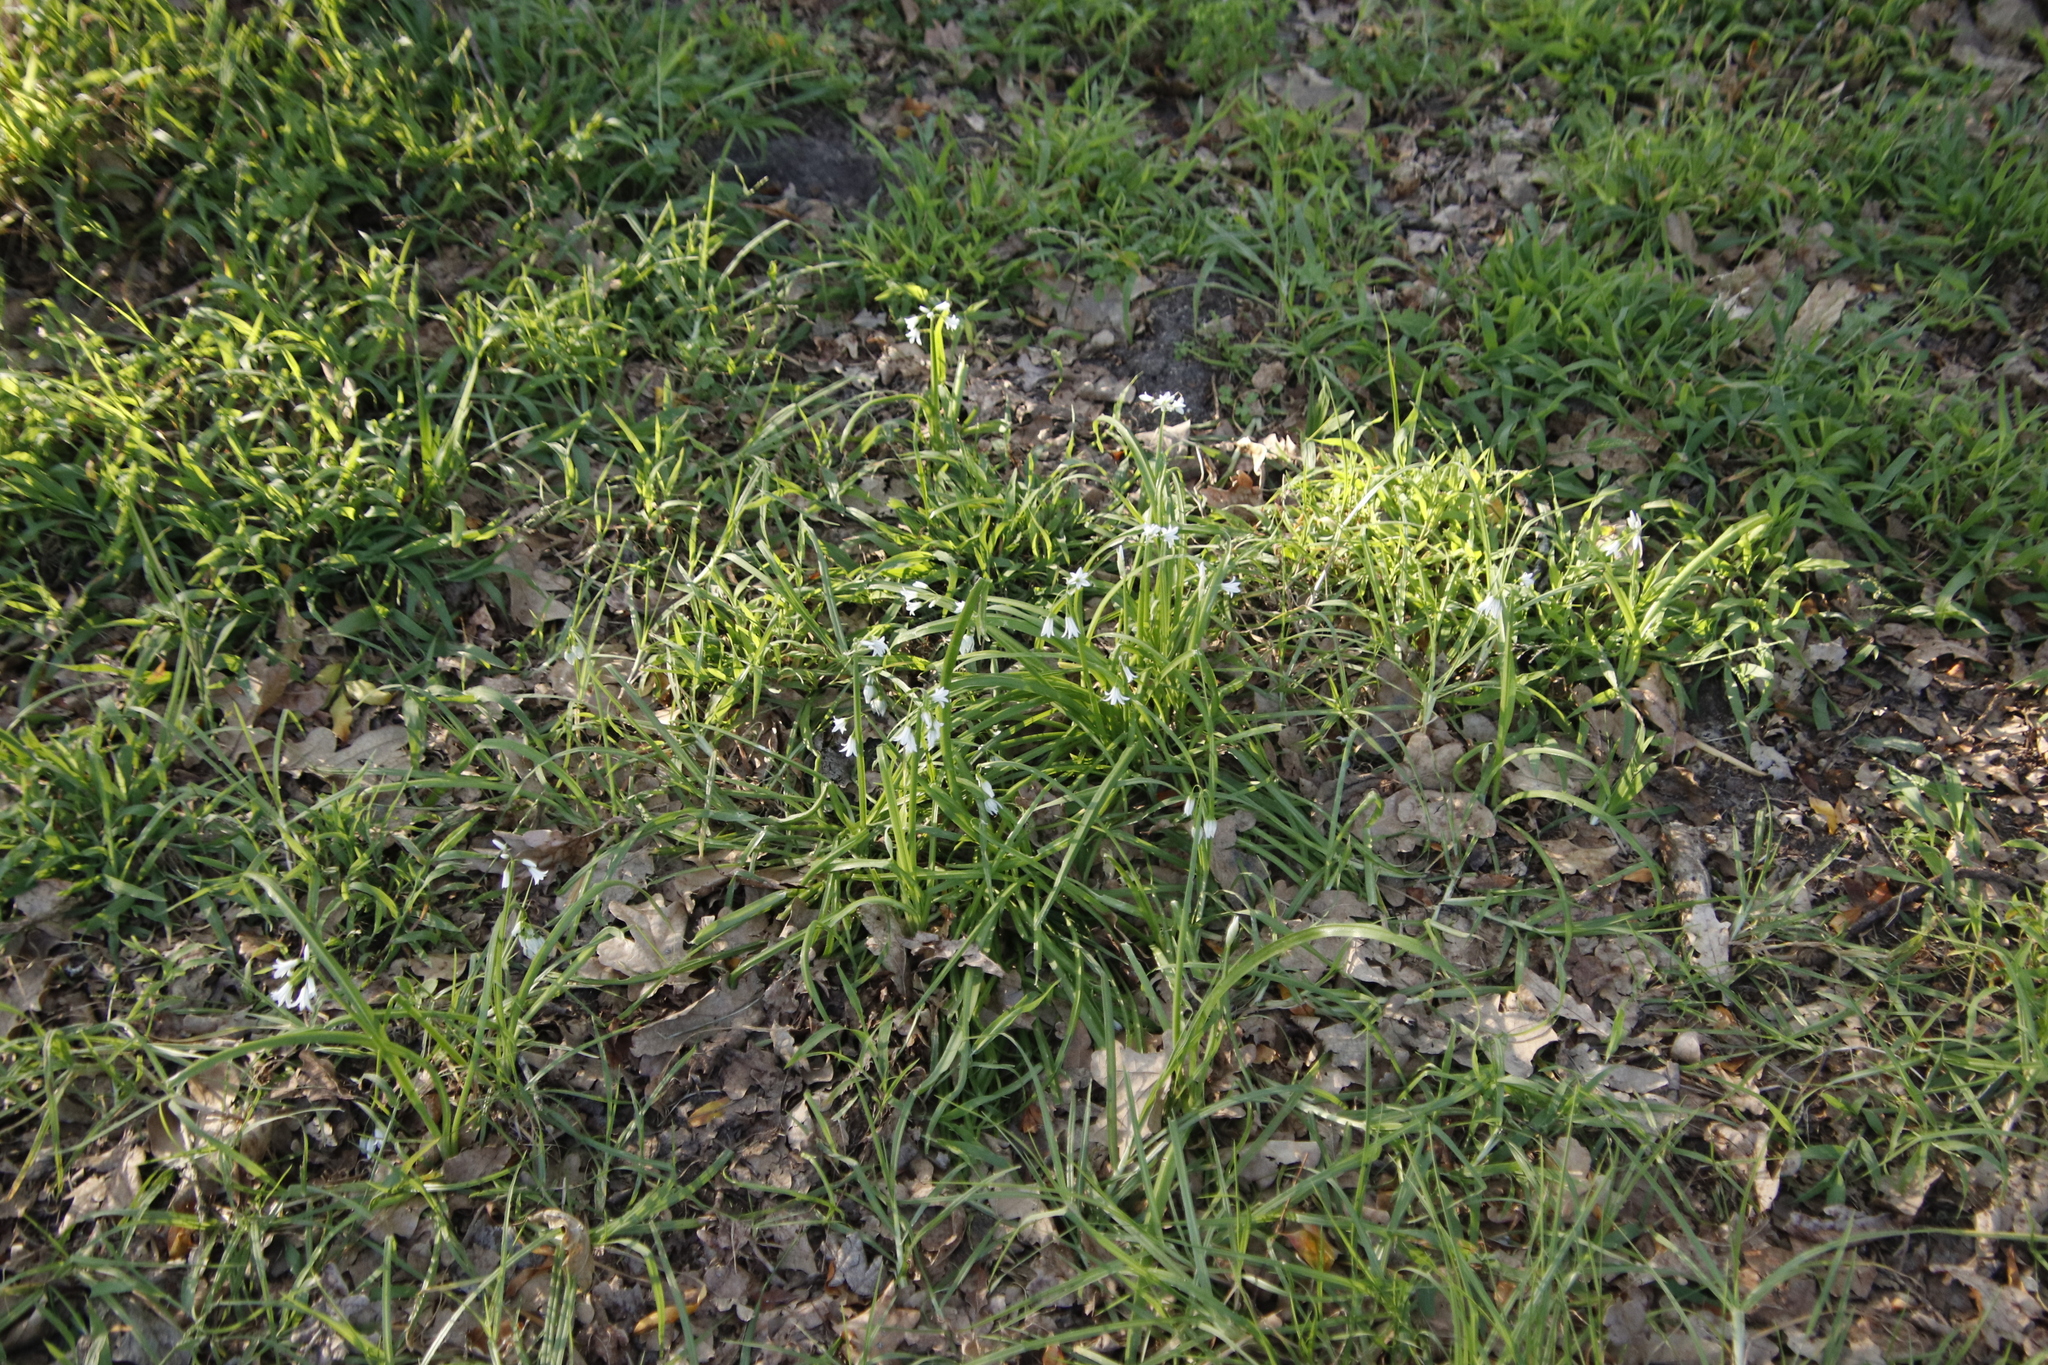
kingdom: Plantae
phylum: Tracheophyta
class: Liliopsida
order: Asparagales
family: Amaryllidaceae
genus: Allium
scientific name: Allium triquetrum
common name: Three-cornered garlic
